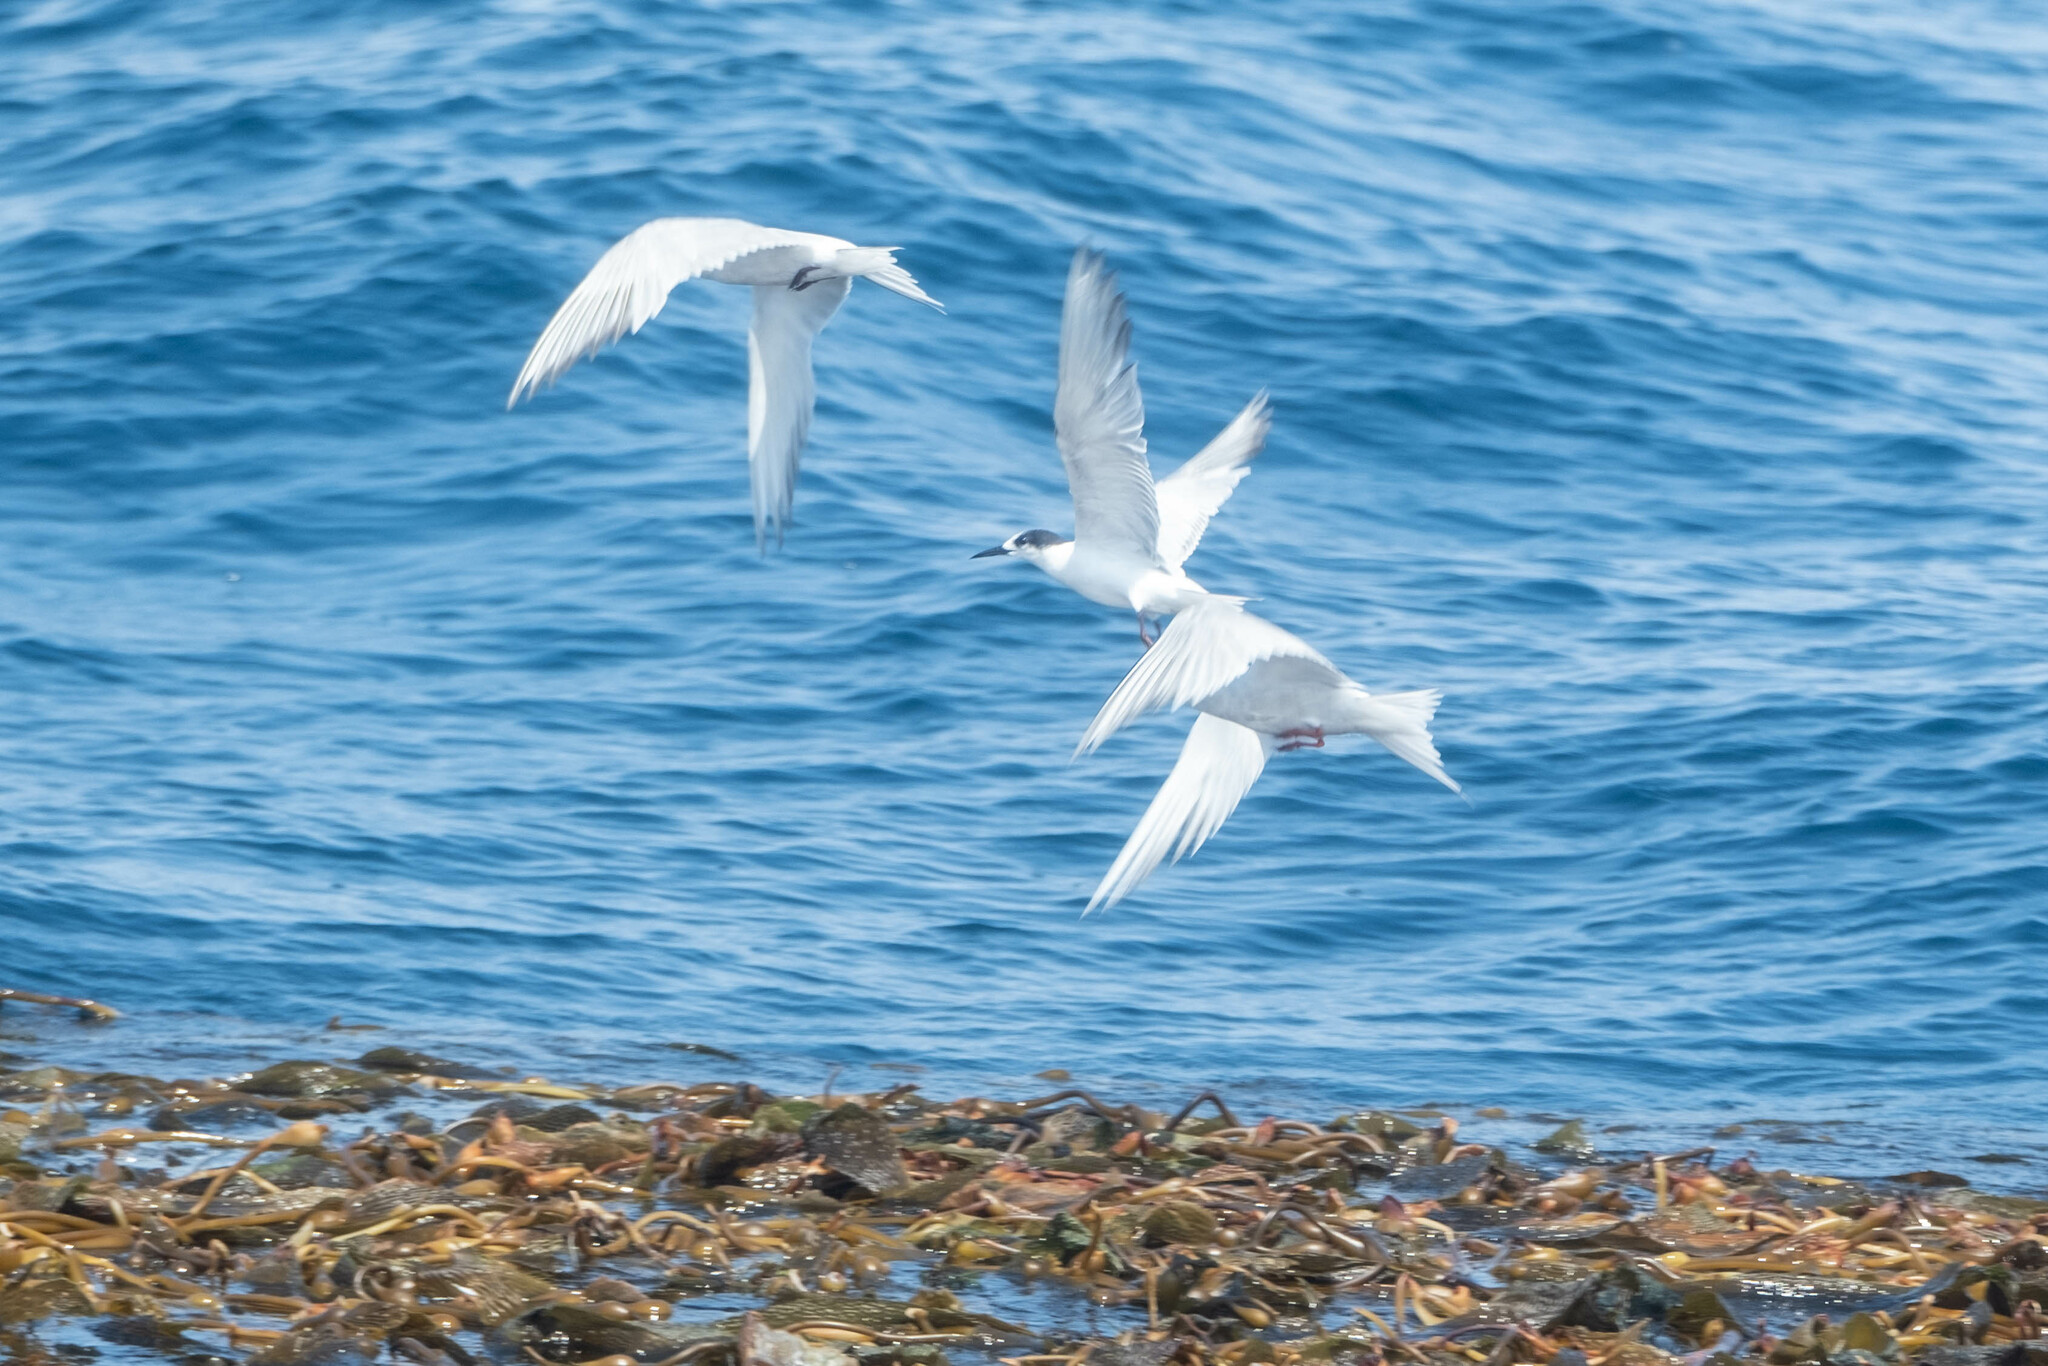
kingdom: Animalia
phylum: Chordata
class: Aves
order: Charadriiformes
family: Laridae
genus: Sterna
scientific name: Sterna hirundo
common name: Common tern
